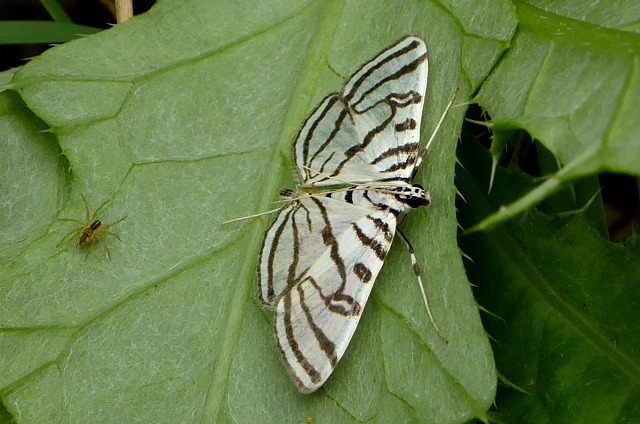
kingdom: Animalia
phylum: Arthropoda
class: Insecta
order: Lepidoptera
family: Crambidae
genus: Conchylodes
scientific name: Conchylodes ovulalis
